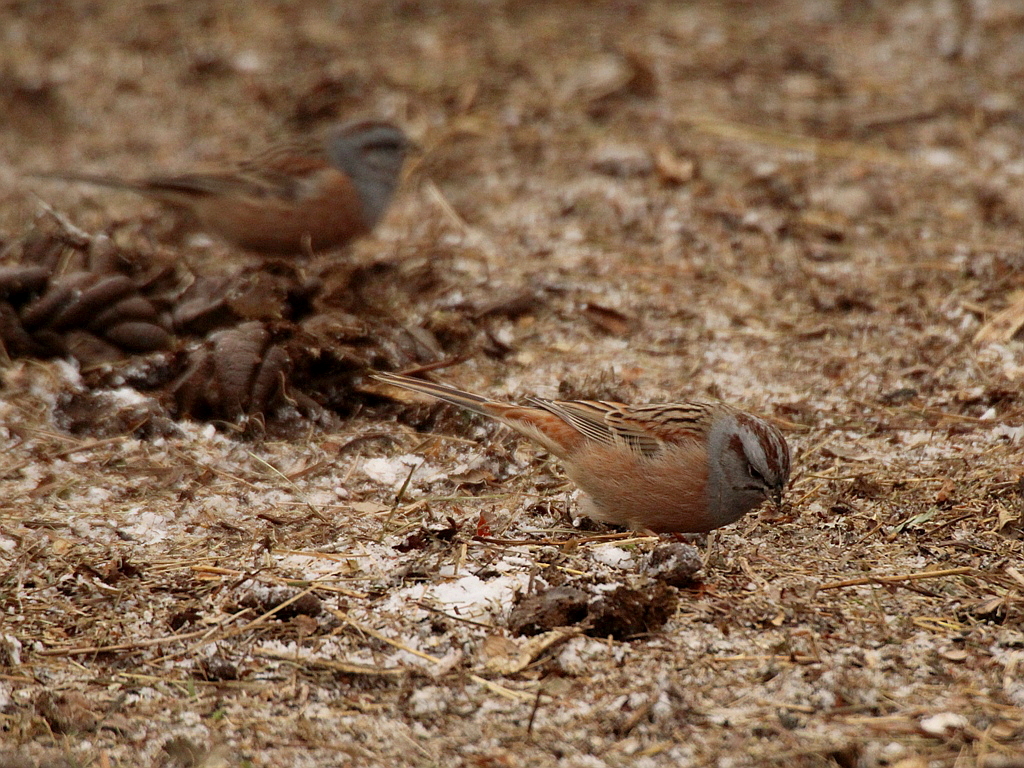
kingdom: Animalia
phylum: Chordata
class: Aves
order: Passeriformes
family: Emberizidae
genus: Emberiza
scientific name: Emberiza godlewskii
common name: Godlewski's bunting
